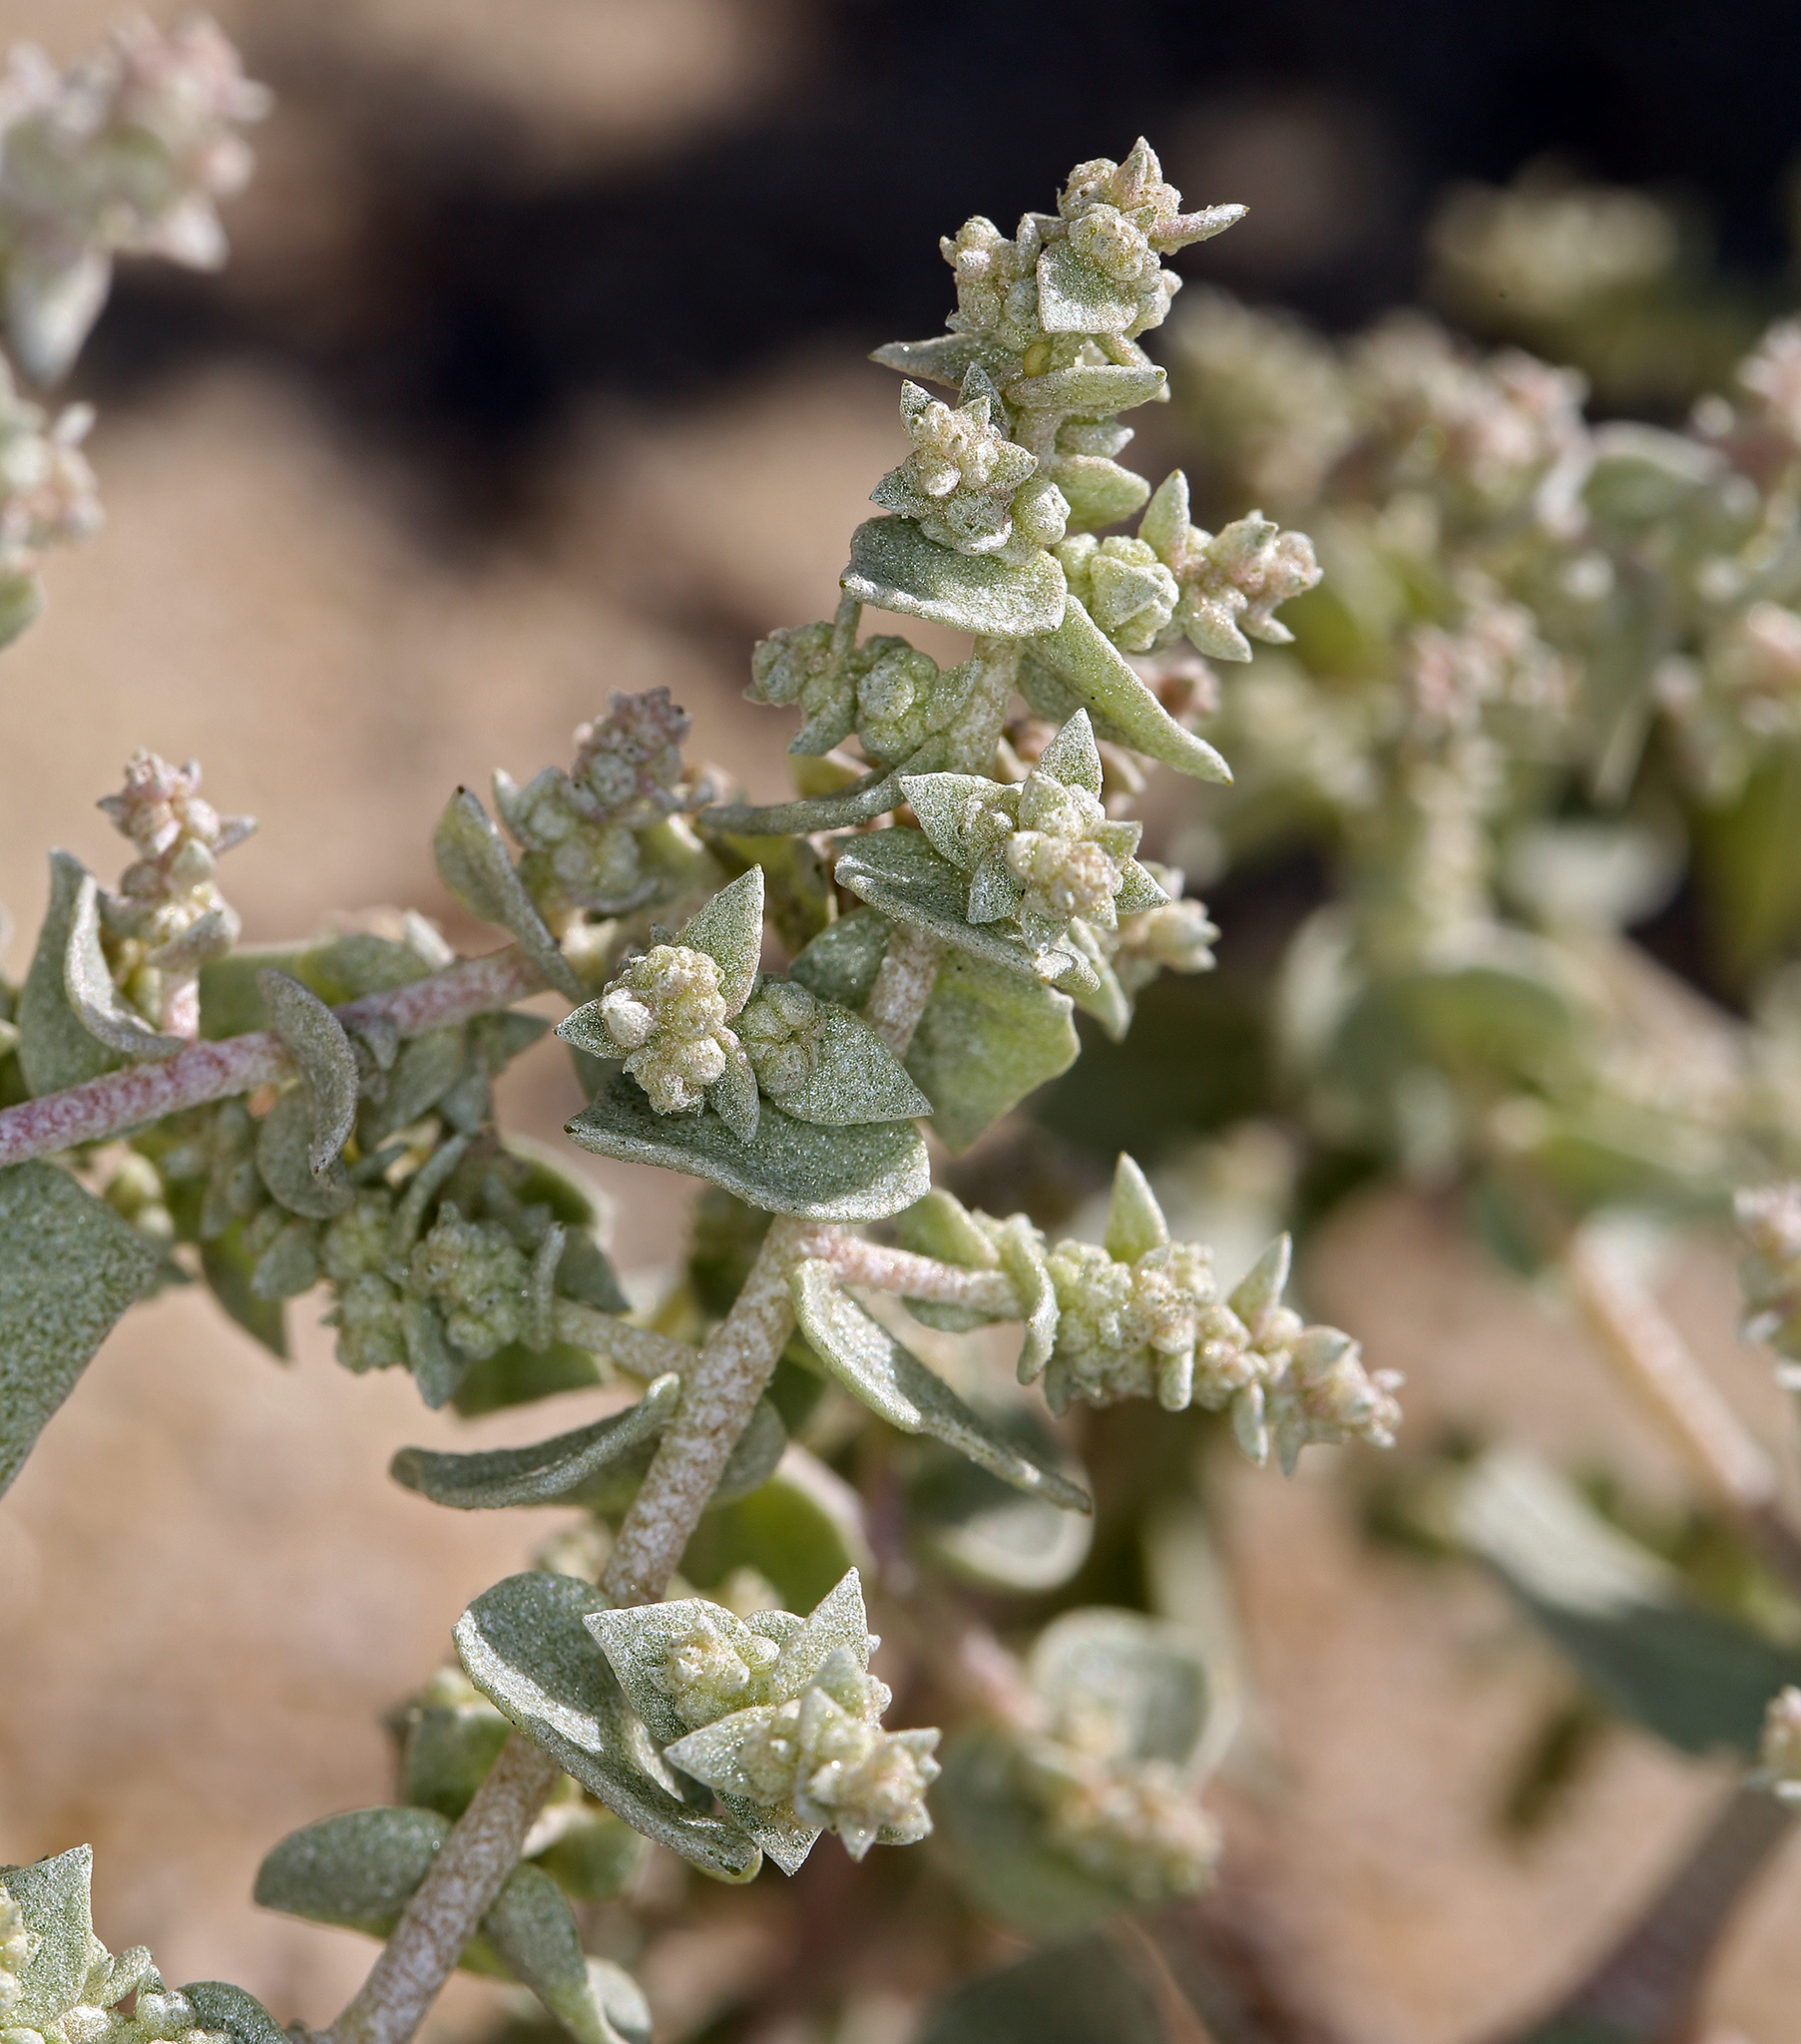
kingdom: Plantae
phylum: Tracheophyta
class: Magnoliopsida
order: Caryophyllales
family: Amaranthaceae
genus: Atriplex
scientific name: Atriplex parryi
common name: Parry's saltbush
